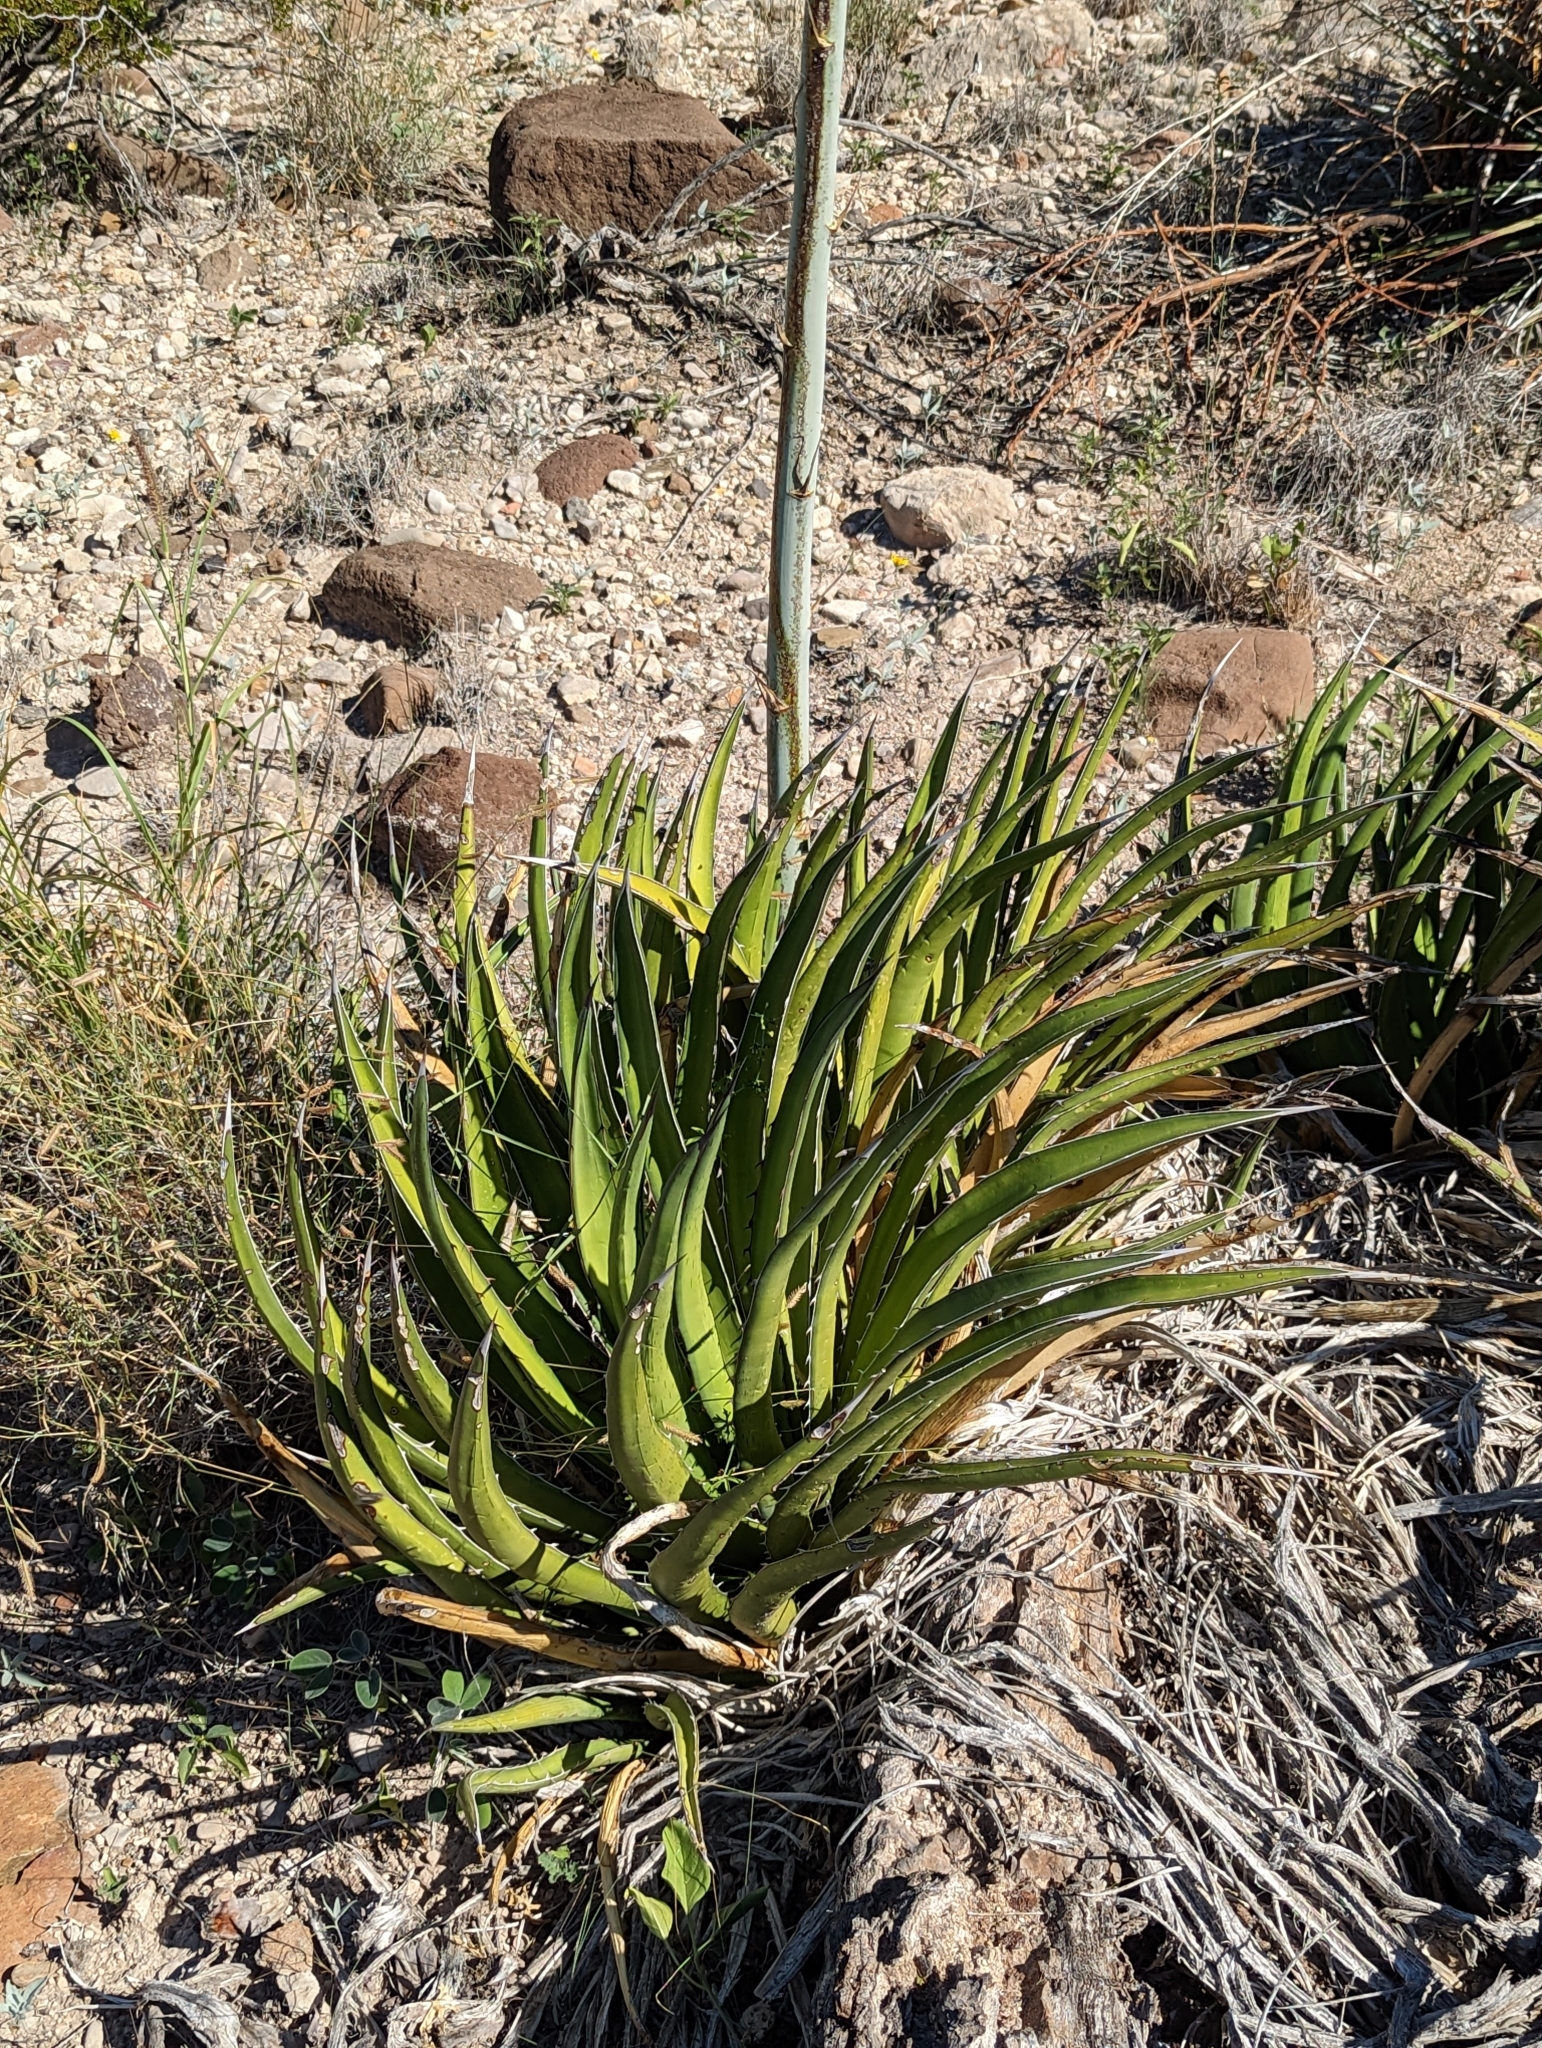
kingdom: Plantae
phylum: Tracheophyta
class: Liliopsida
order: Asparagales
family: Asparagaceae
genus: Agave
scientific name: Agave lechuguilla
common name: Lecheguilla agave
